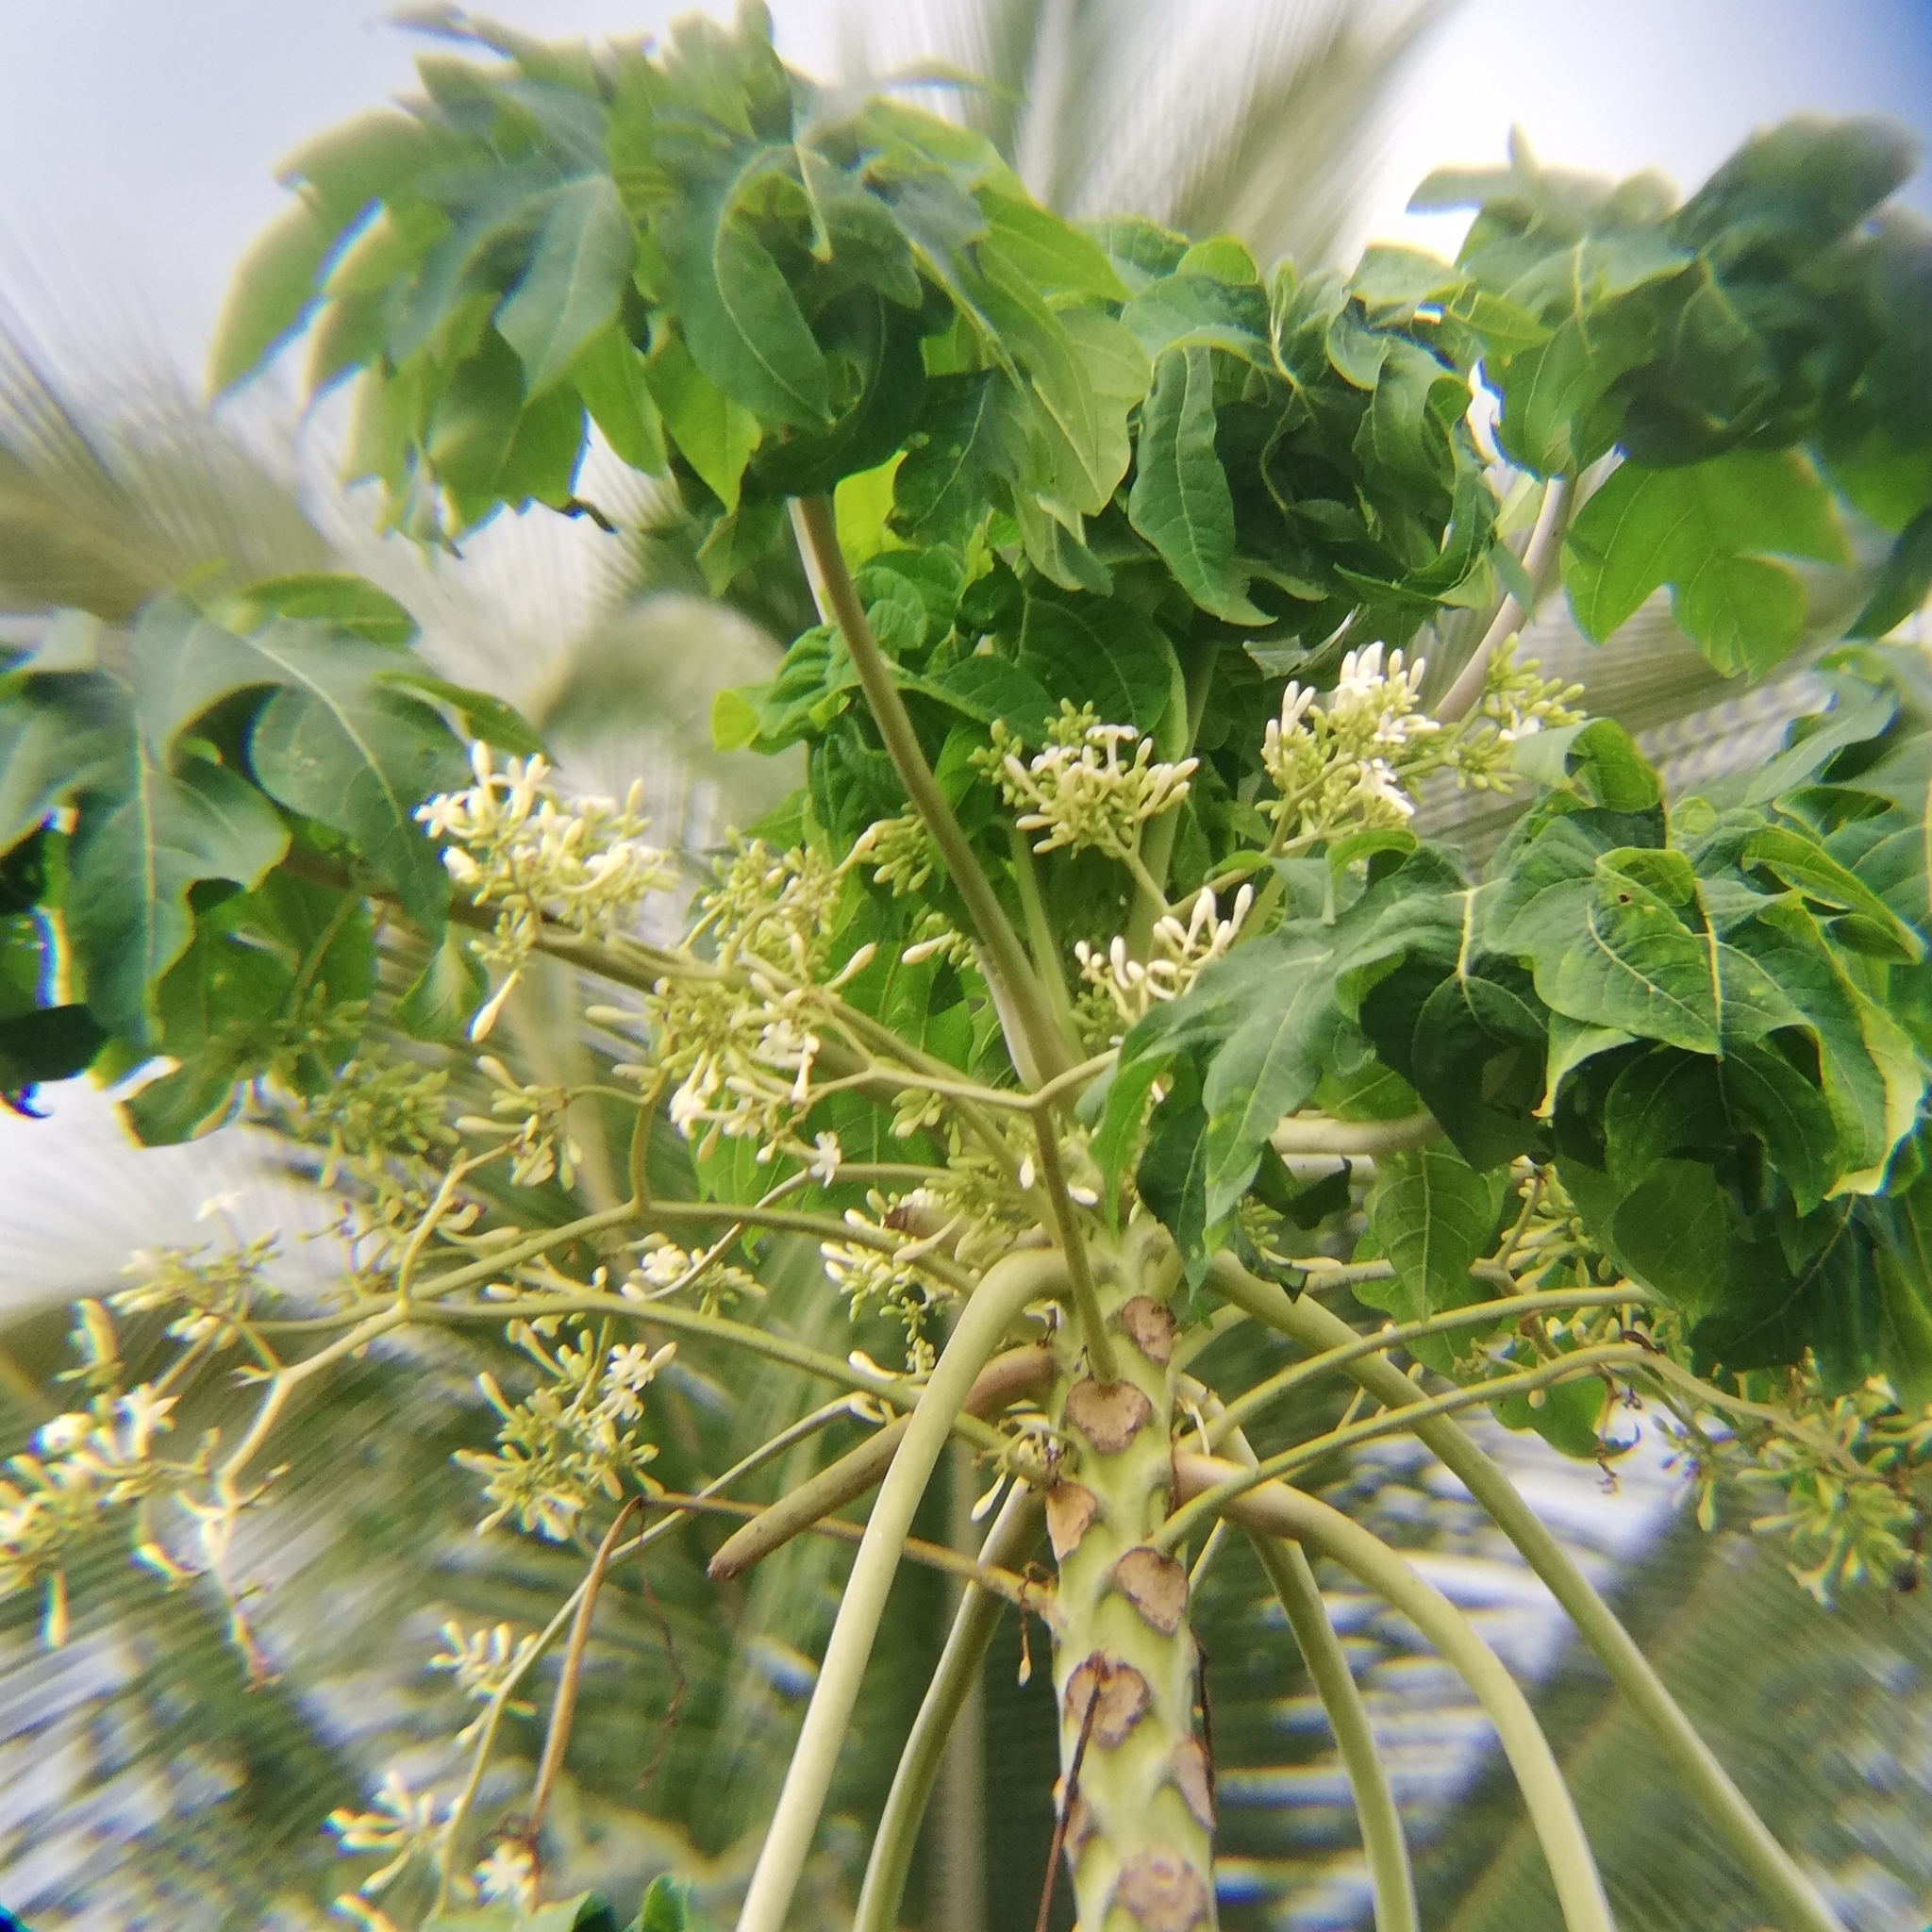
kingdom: Plantae
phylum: Tracheophyta
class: Magnoliopsida
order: Brassicales
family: Caricaceae
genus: Carica
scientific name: Carica papaya
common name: Papaya
